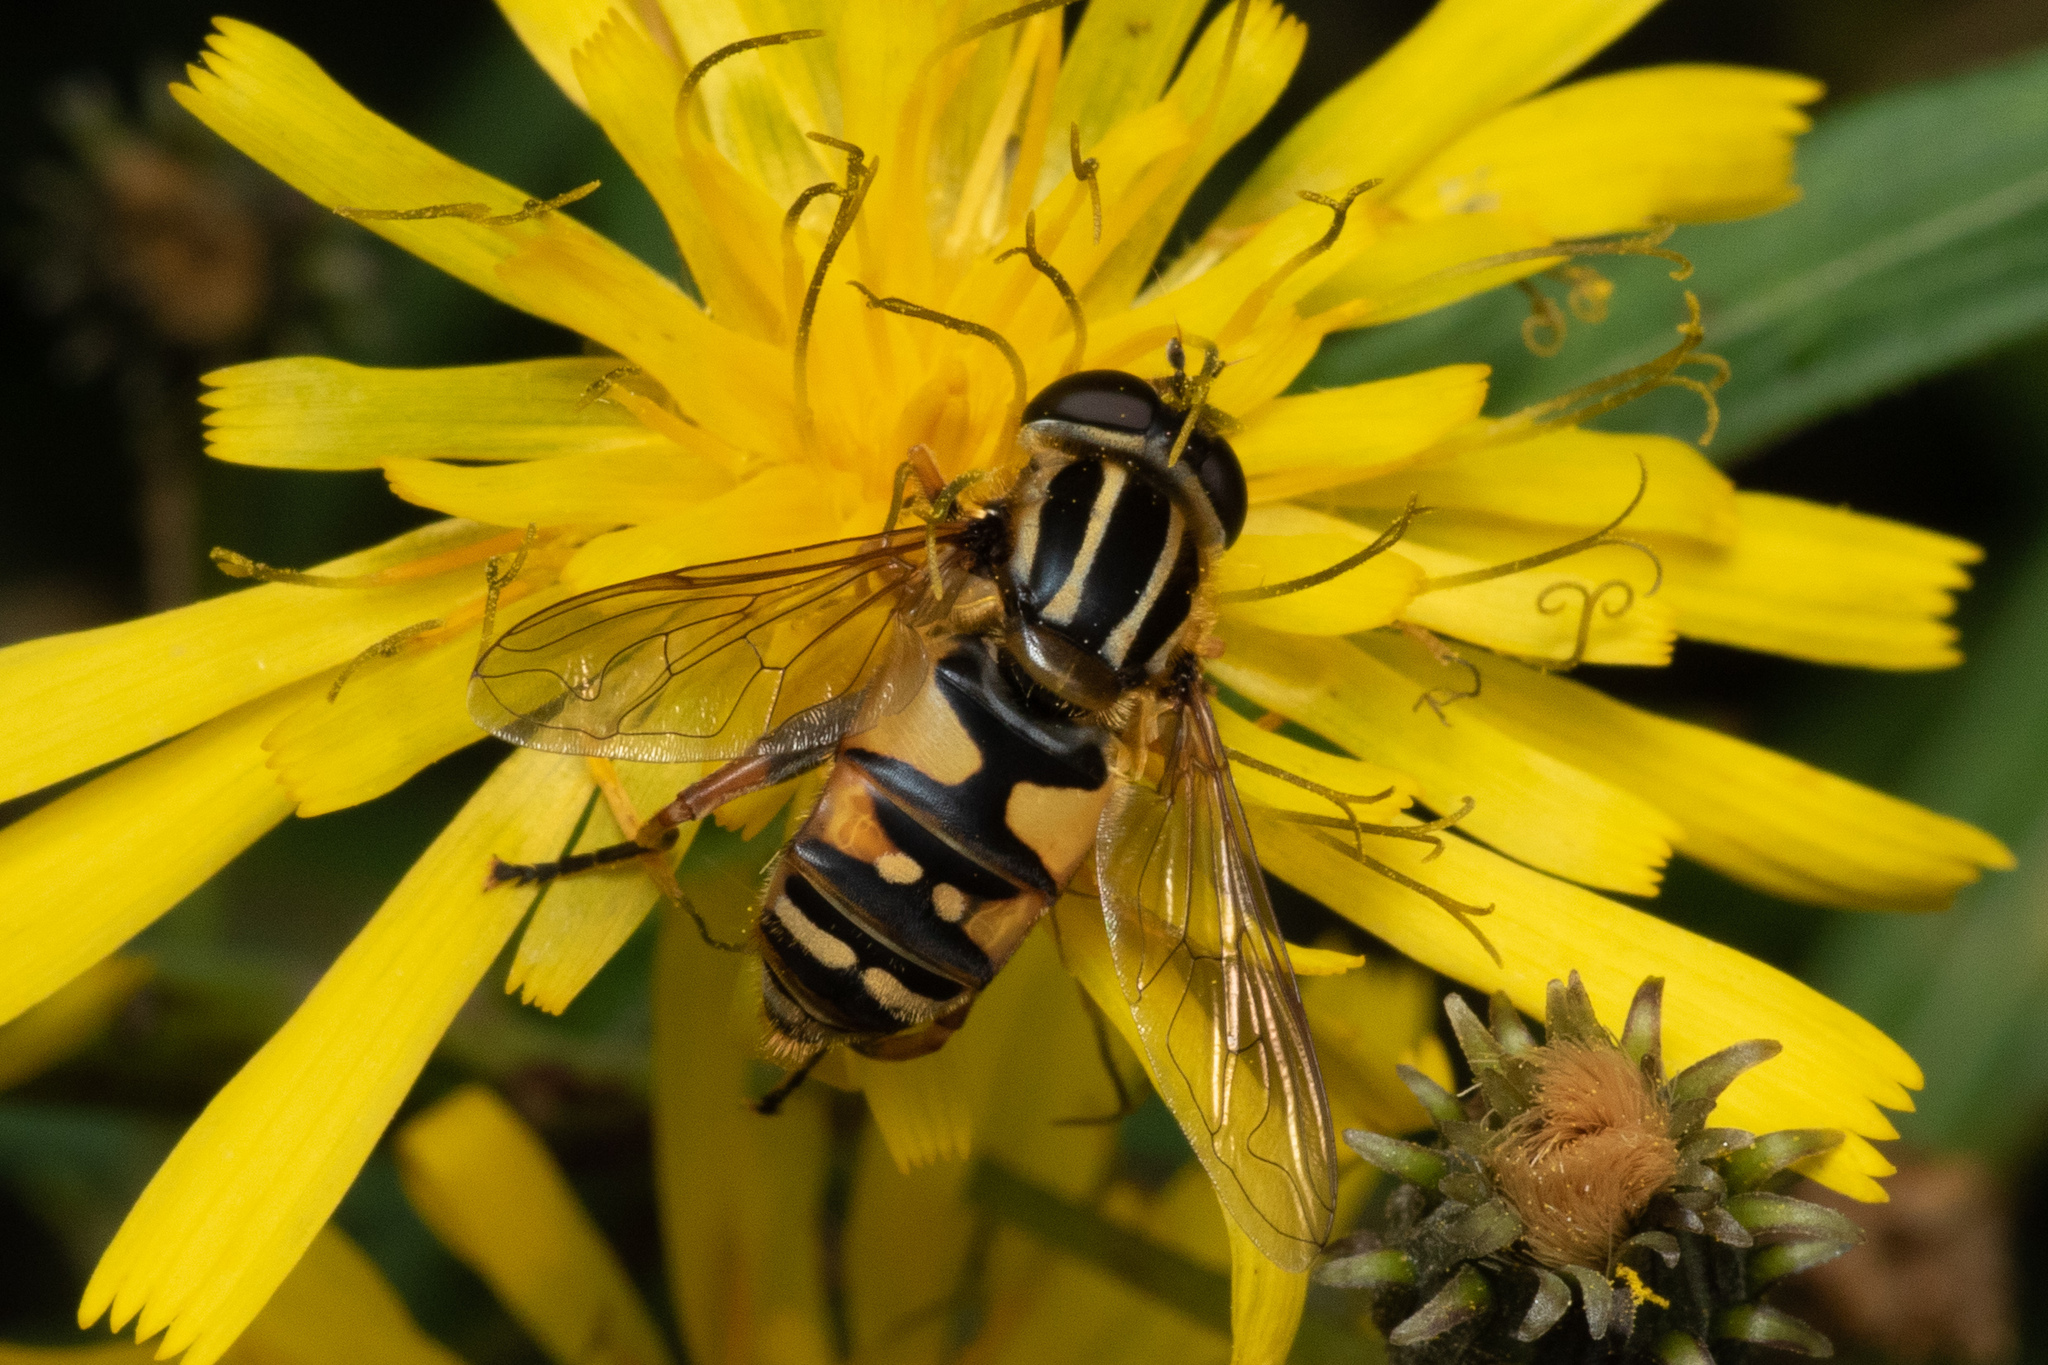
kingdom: Animalia
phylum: Arthropoda
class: Insecta
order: Diptera
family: Syrphidae
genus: Helophilus
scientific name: Helophilus pendulus
